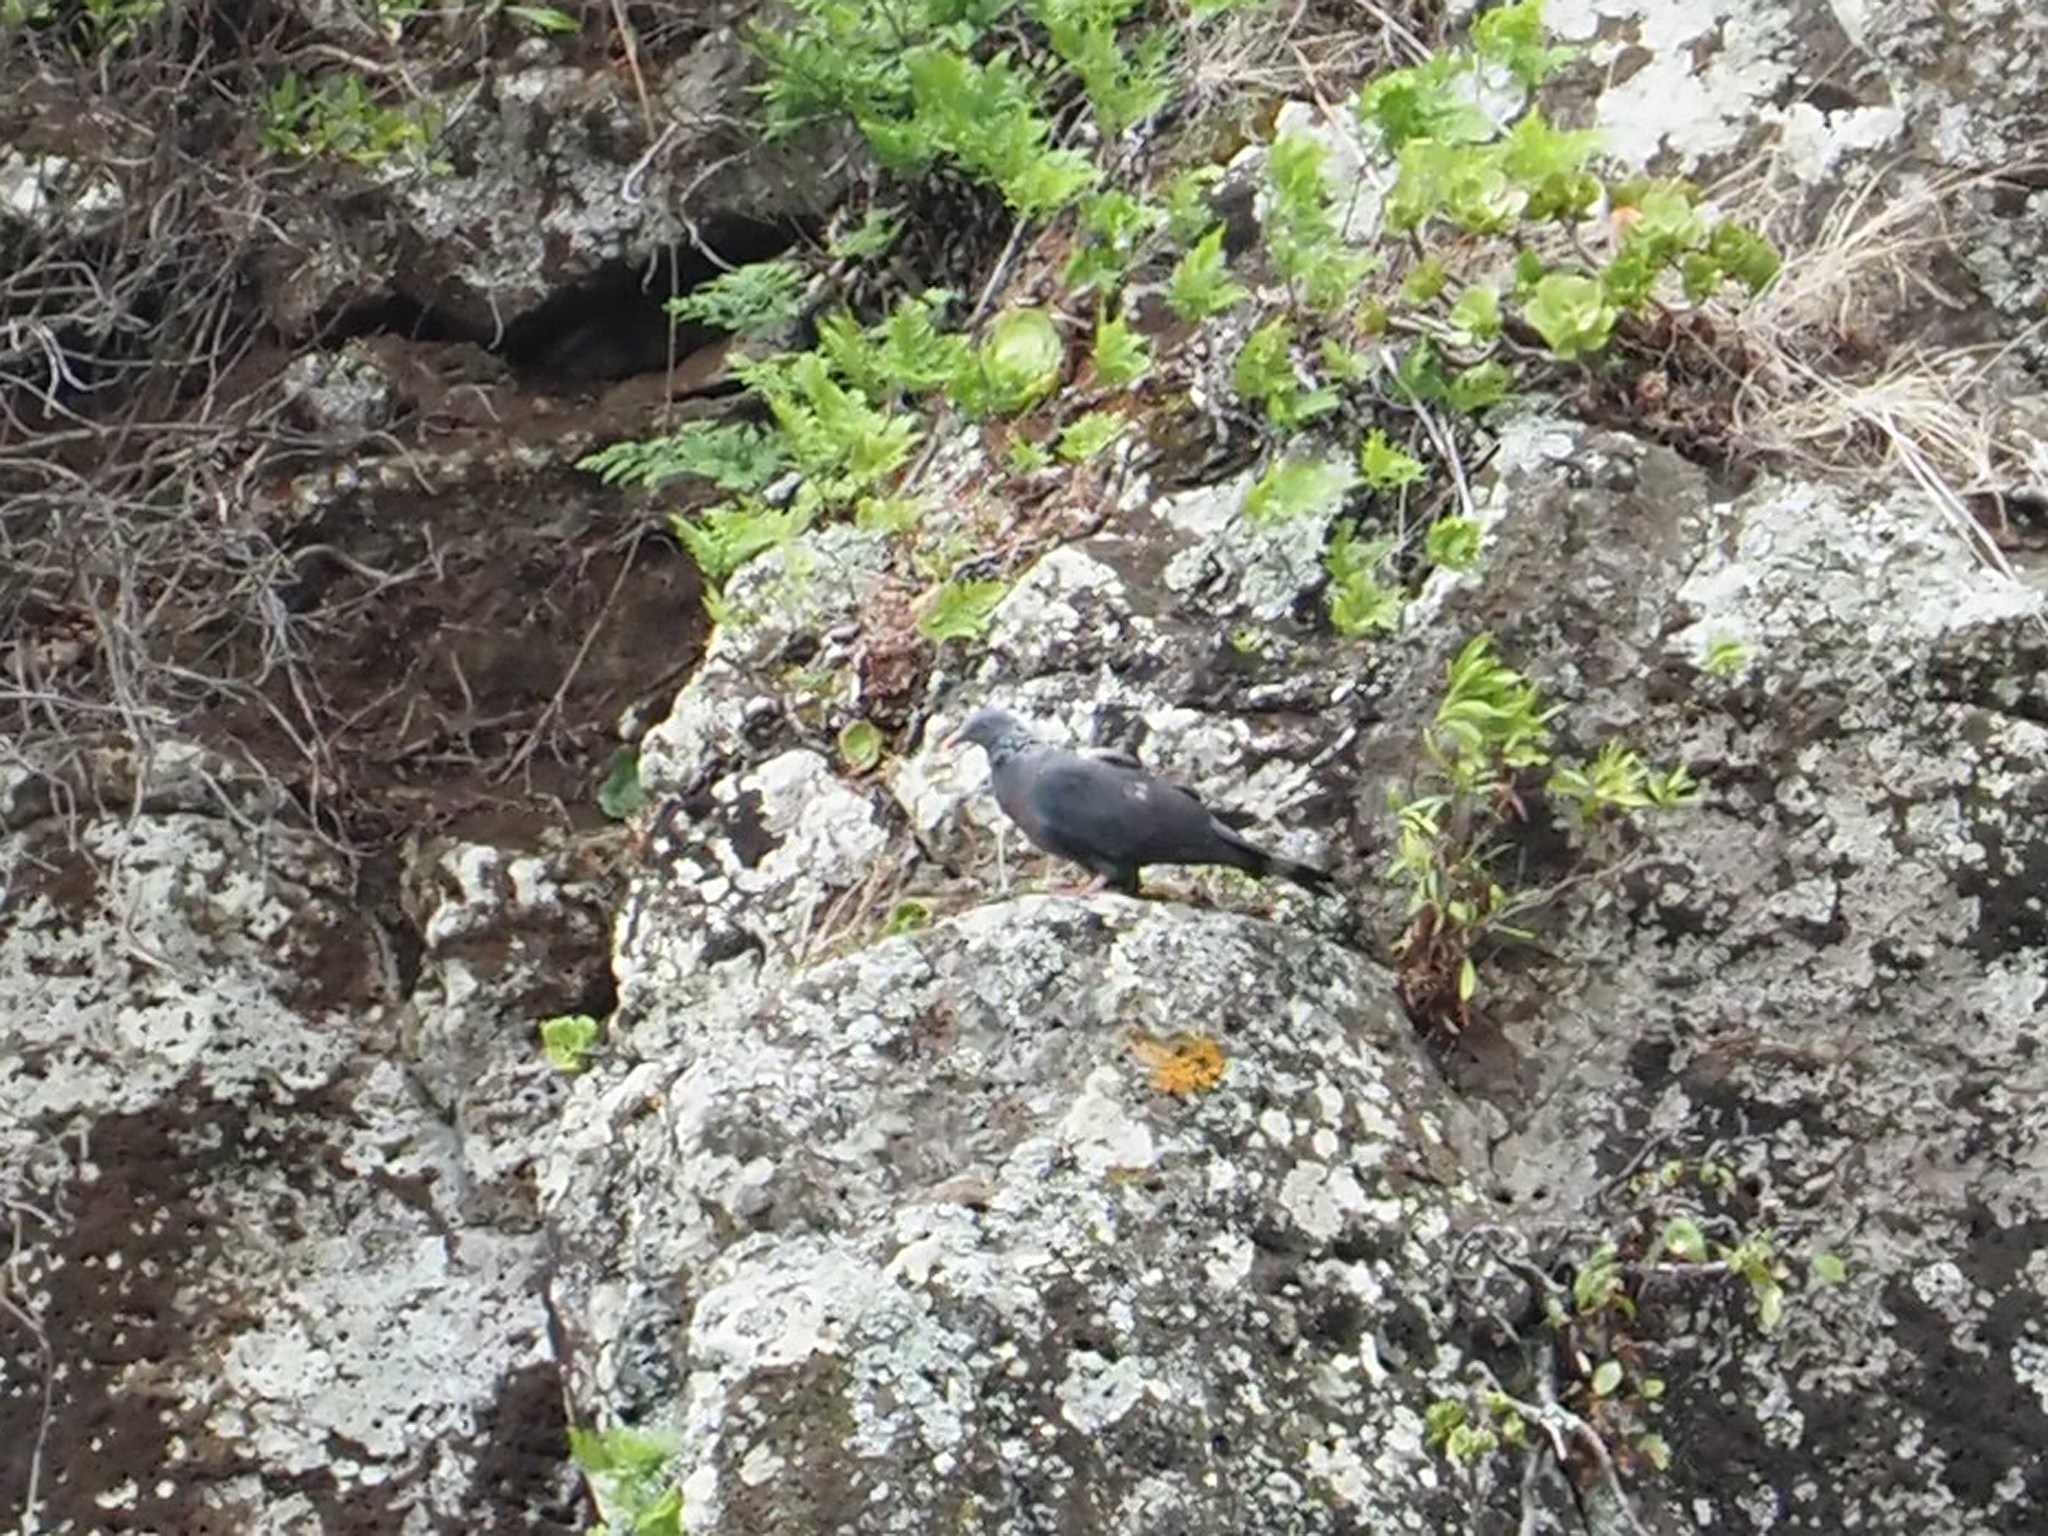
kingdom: Animalia
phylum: Chordata
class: Aves
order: Columbiformes
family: Columbidae
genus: Columba
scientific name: Columba trocaz
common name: Trocaz pigeon
